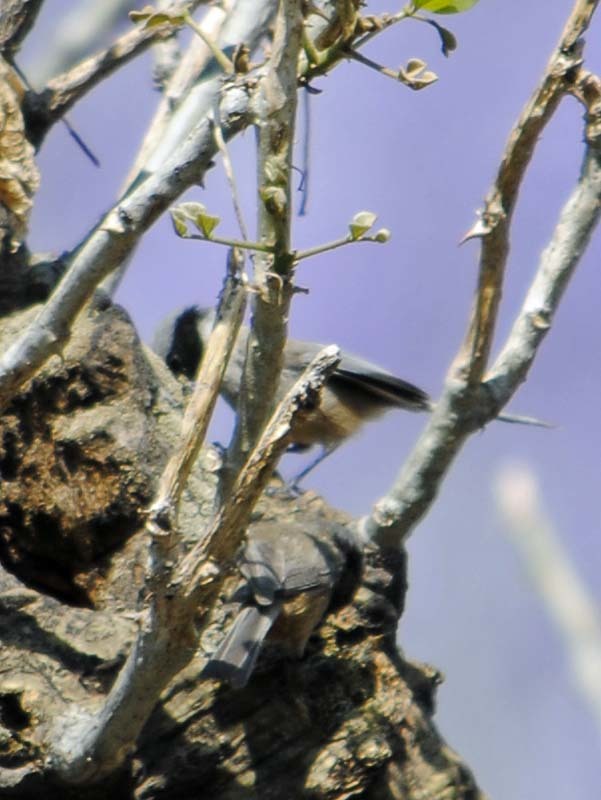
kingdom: Animalia
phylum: Chordata
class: Aves
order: Passeriformes
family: Aegithalidae
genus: Psaltriparus
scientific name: Psaltriparus minimus
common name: American bushtit
